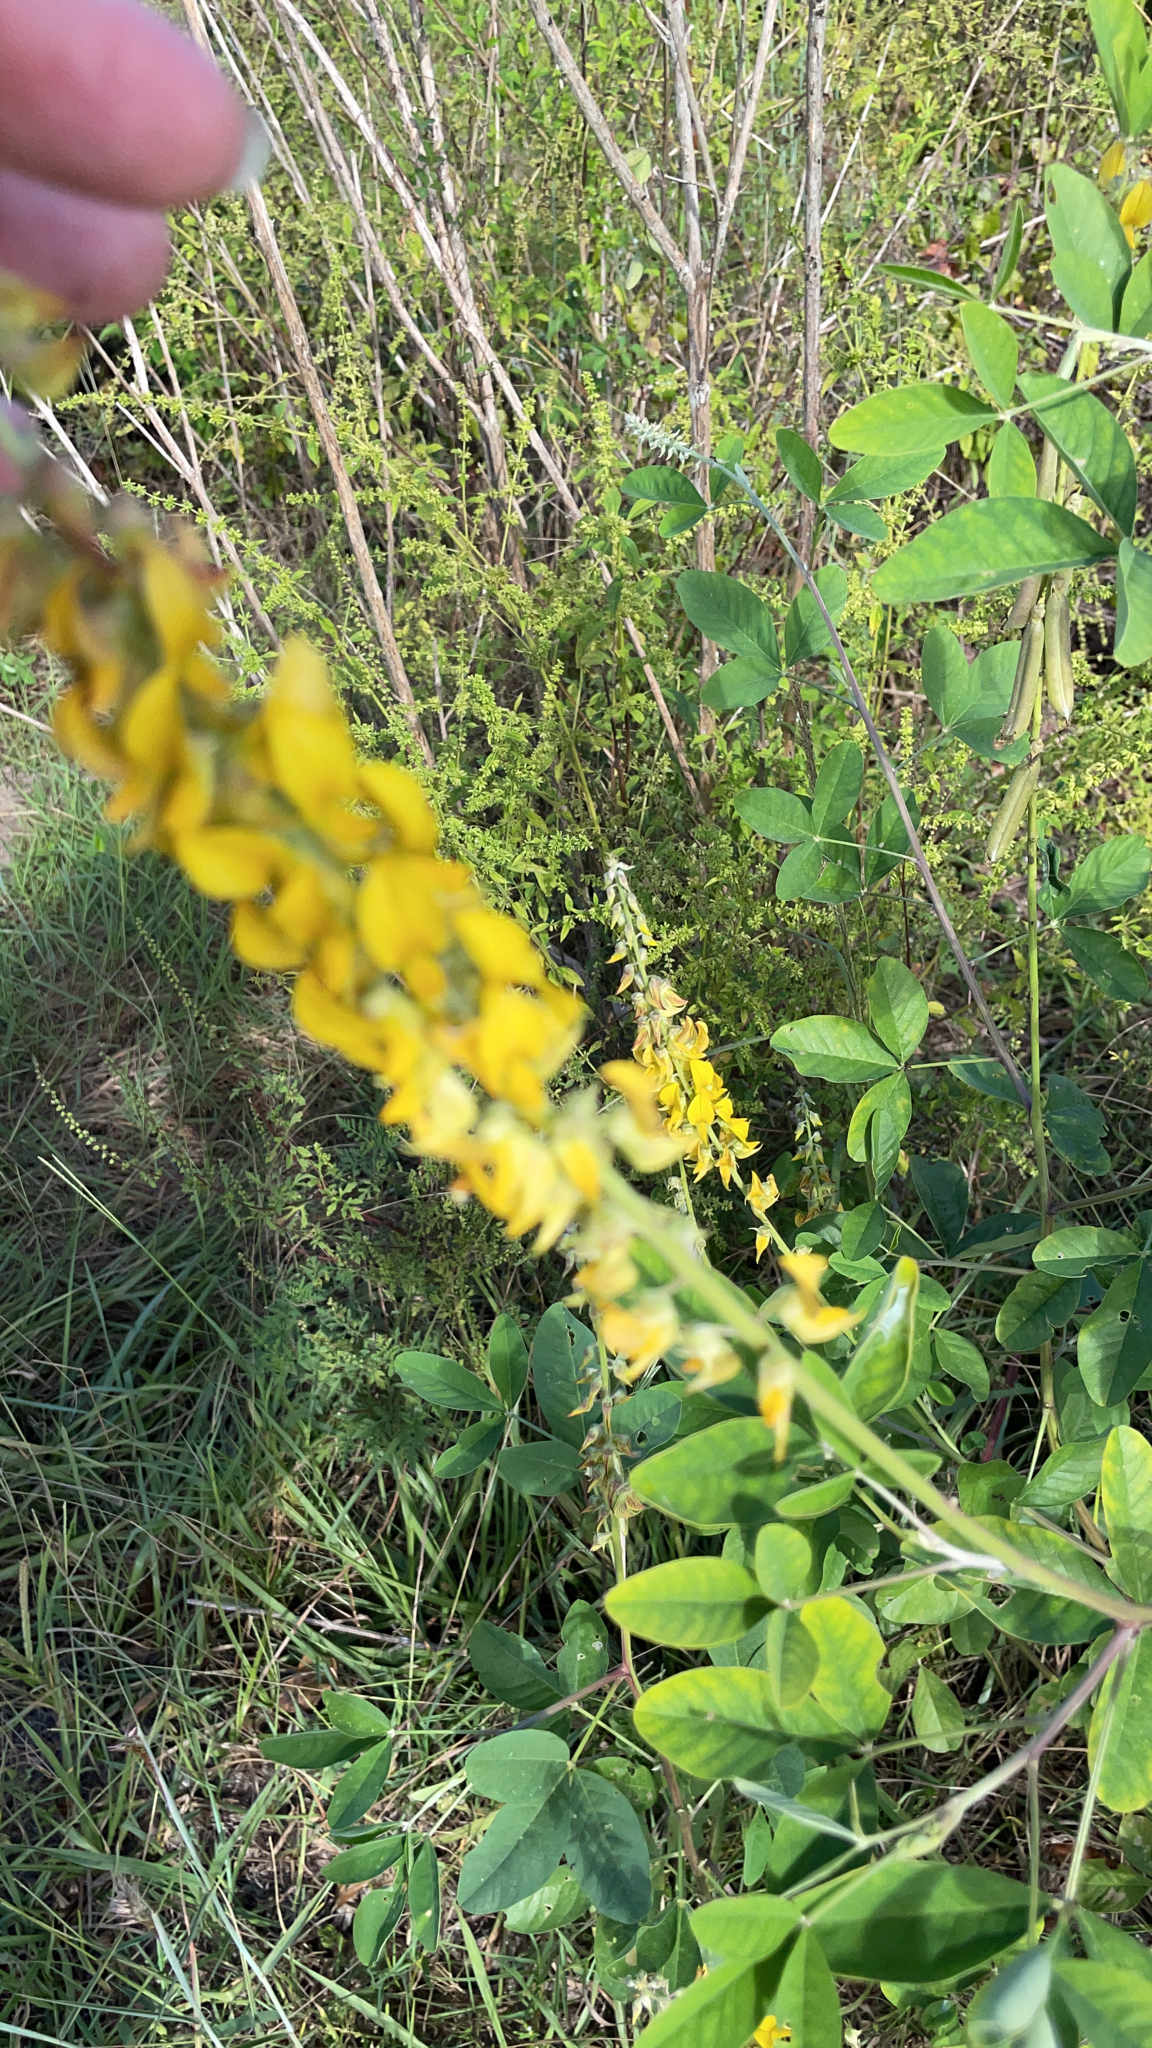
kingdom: Plantae
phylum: Tracheophyta
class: Magnoliopsida
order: Fabales
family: Fabaceae
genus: Crotalaria
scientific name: Crotalaria pallida
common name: Smooth rattlebox
